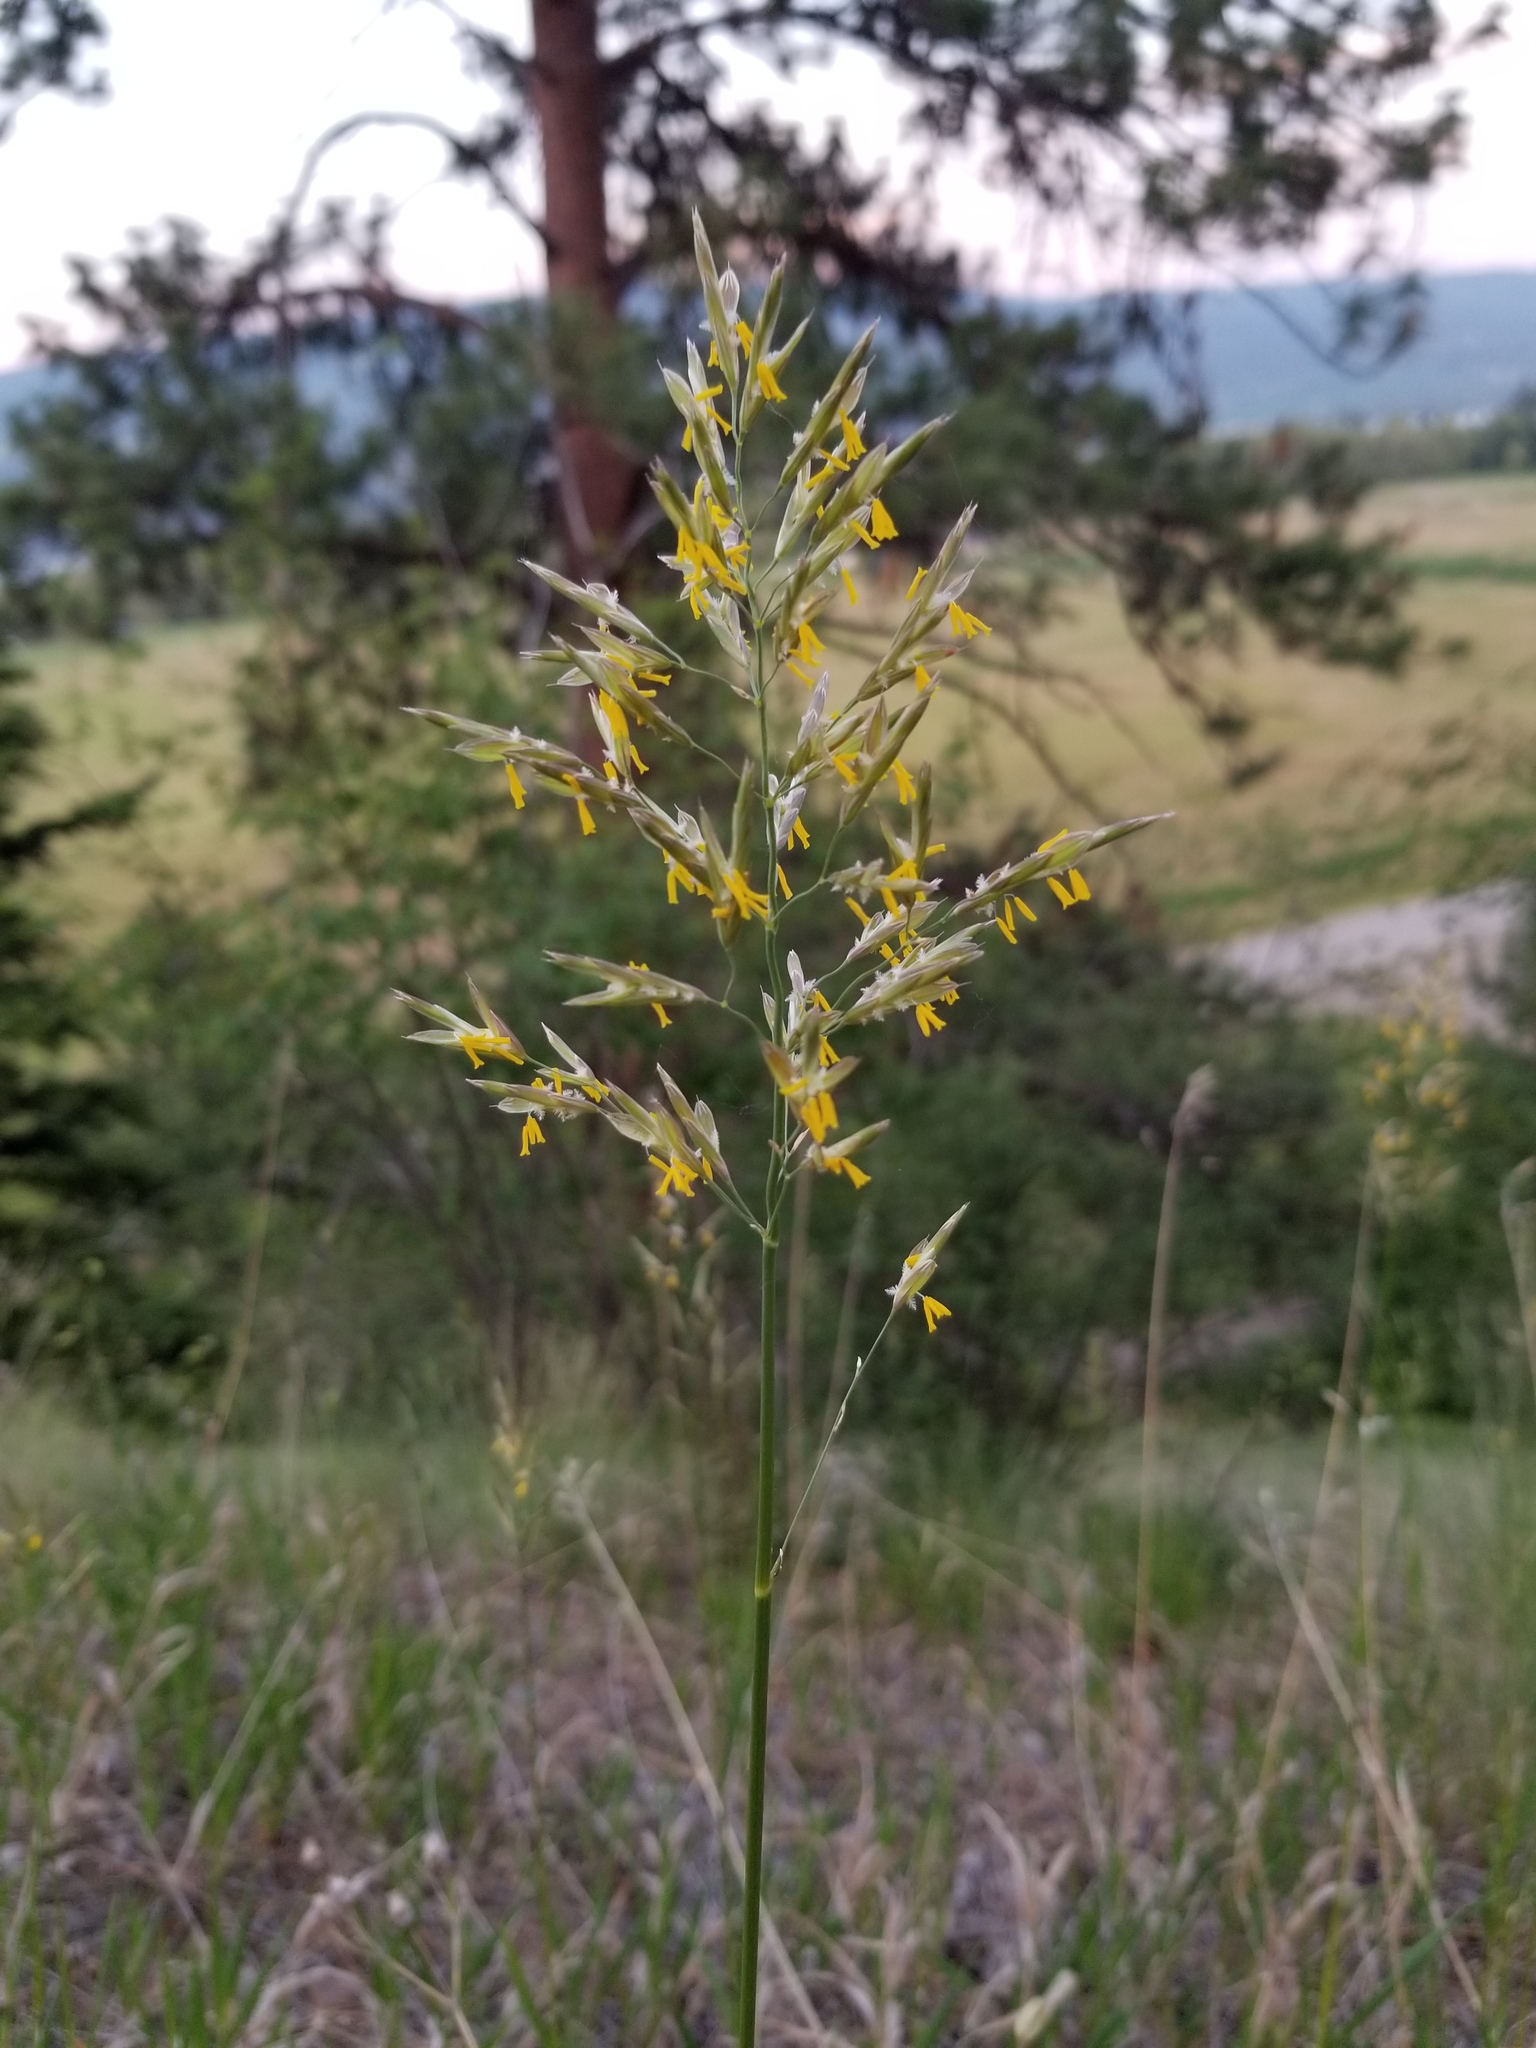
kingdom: Plantae
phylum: Tracheophyta
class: Liliopsida
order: Poales
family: Poaceae
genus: Bromus
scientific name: Bromus inermis
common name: Smooth brome
